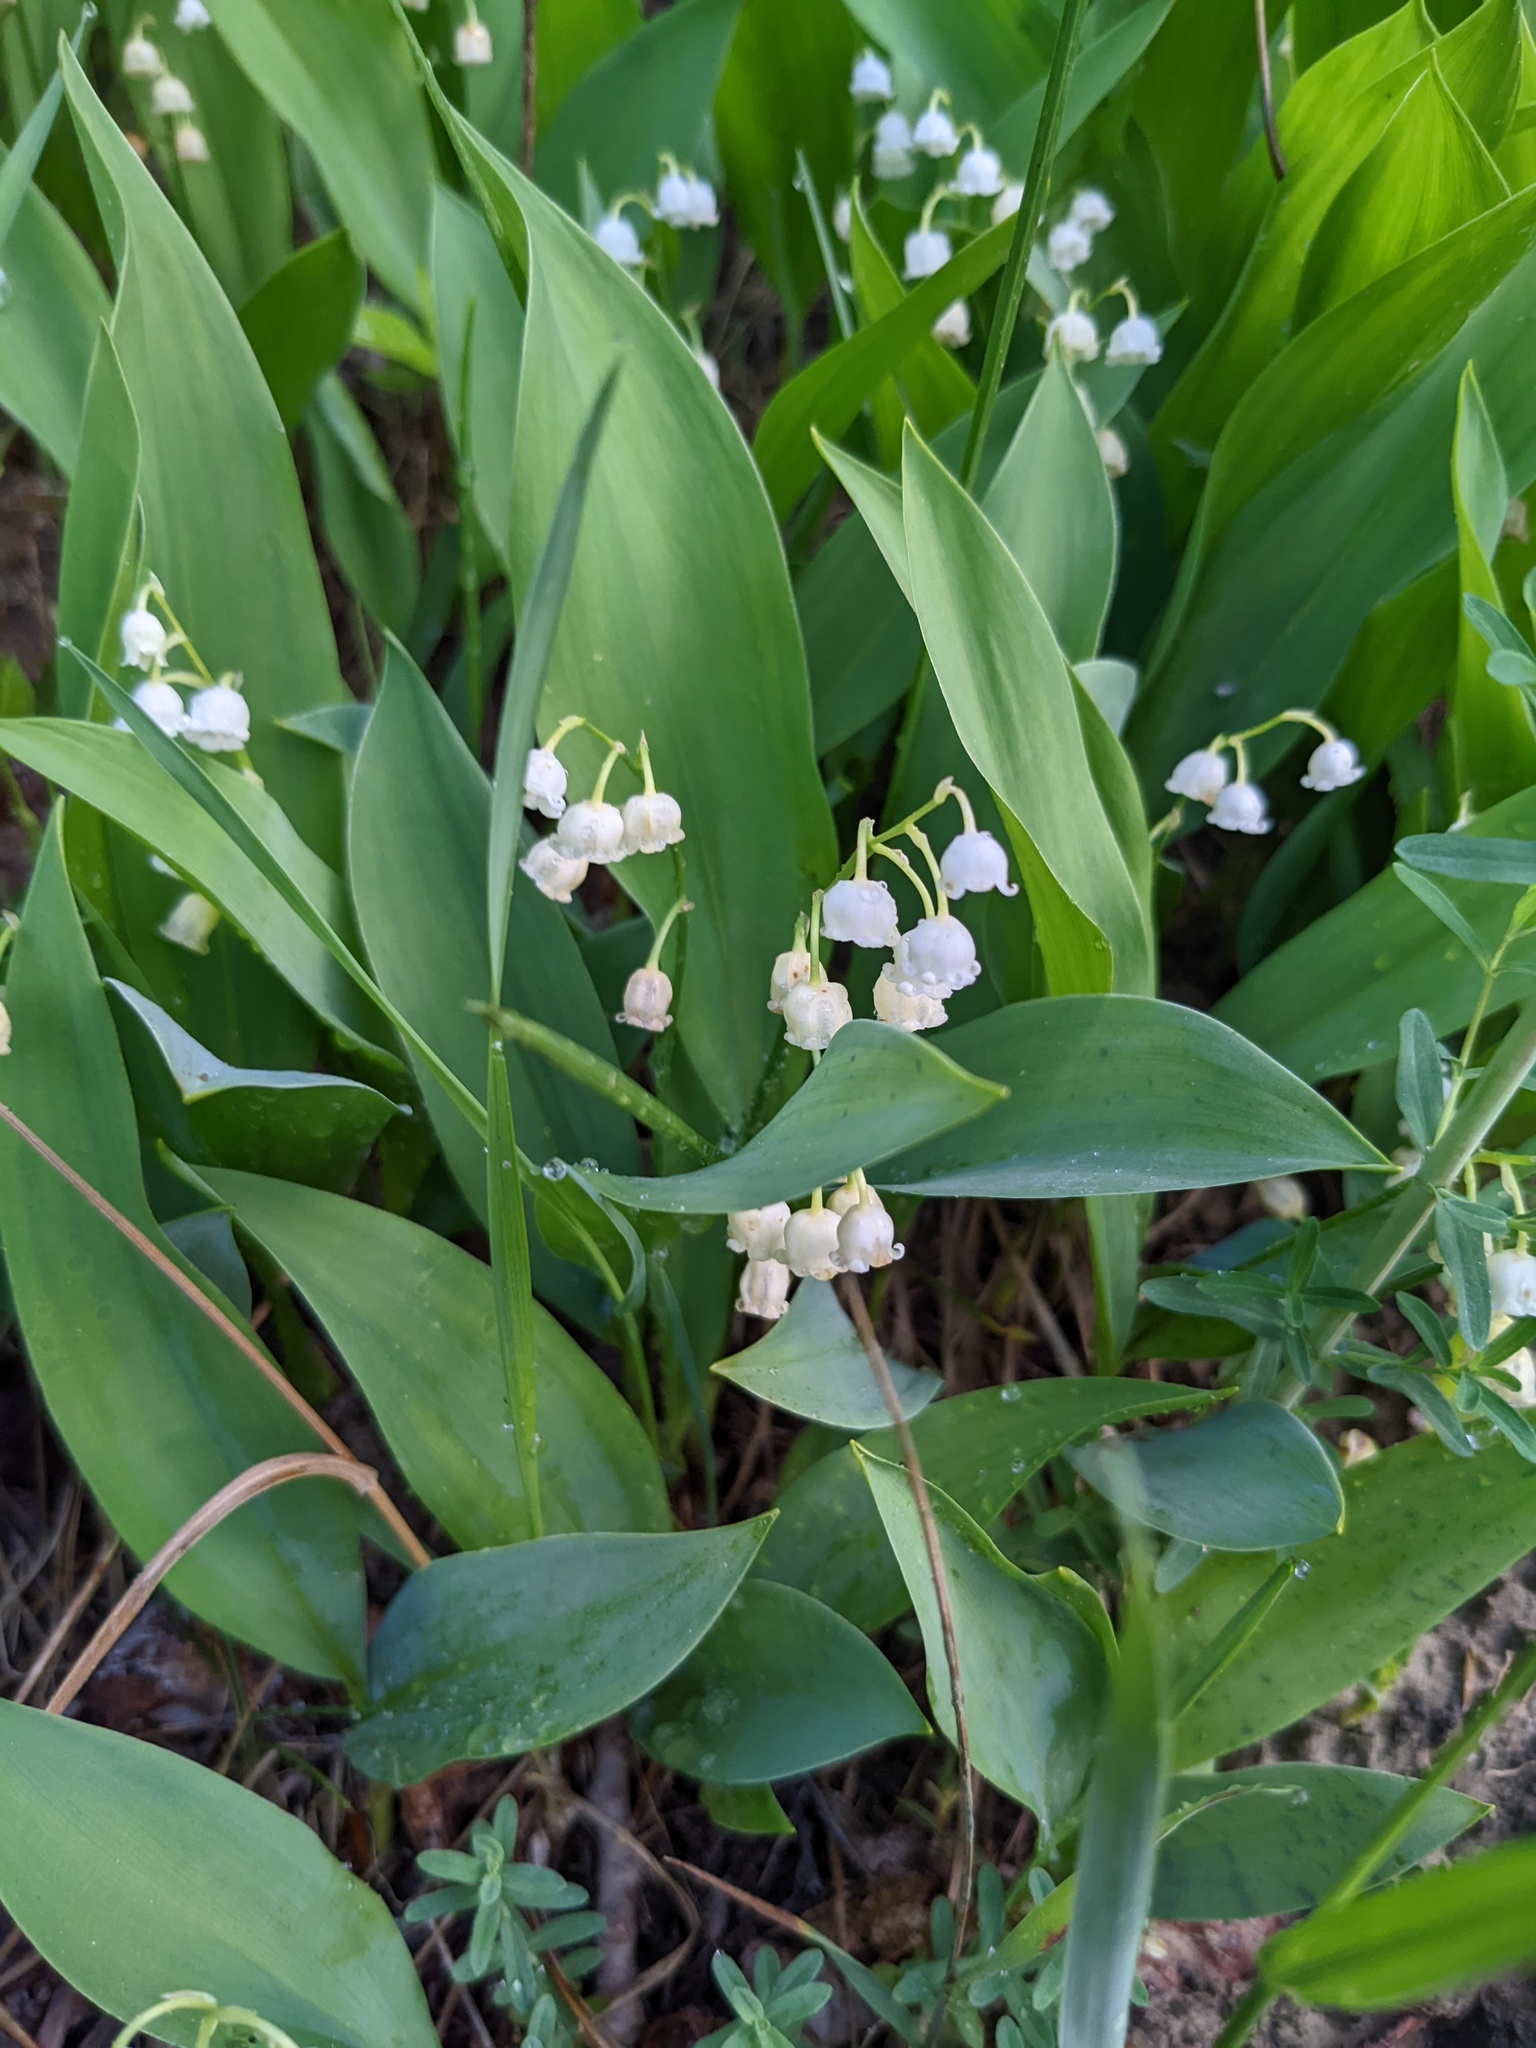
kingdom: Plantae
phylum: Tracheophyta
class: Liliopsida
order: Asparagales
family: Asparagaceae
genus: Convallaria
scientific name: Convallaria majalis
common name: Lily-of-the-valley
